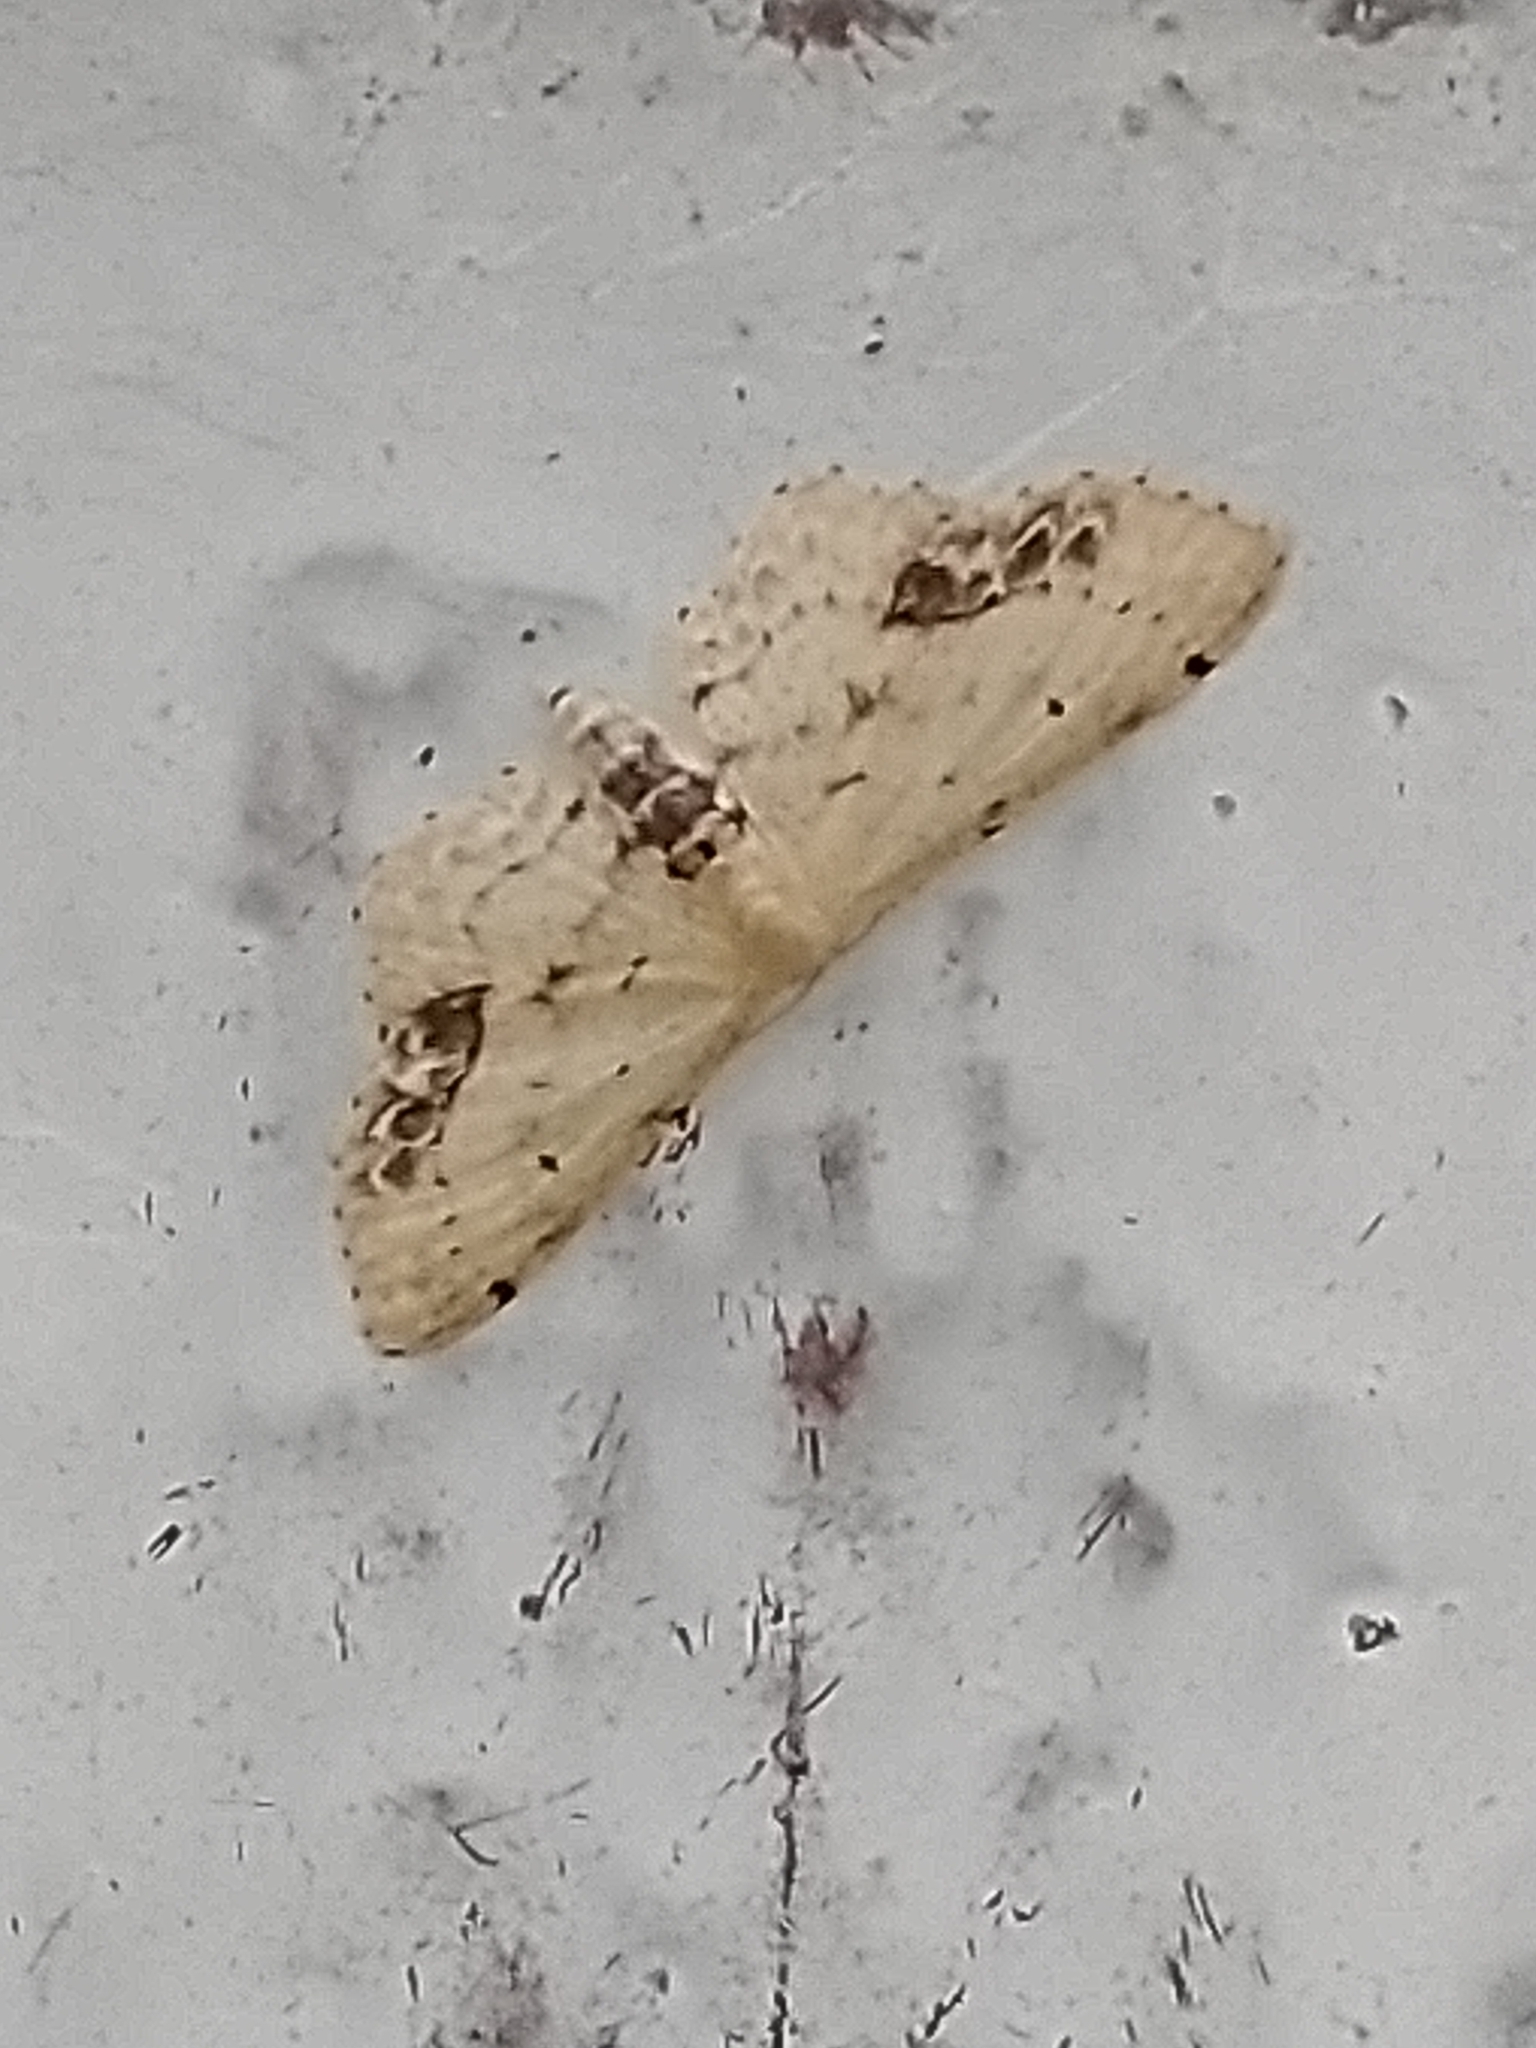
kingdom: Animalia
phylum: Arthropoda
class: Insecta
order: Lepidoptera
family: Geometridae
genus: Idaea
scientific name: Idaea dimidiata
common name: Single-dotted wave
